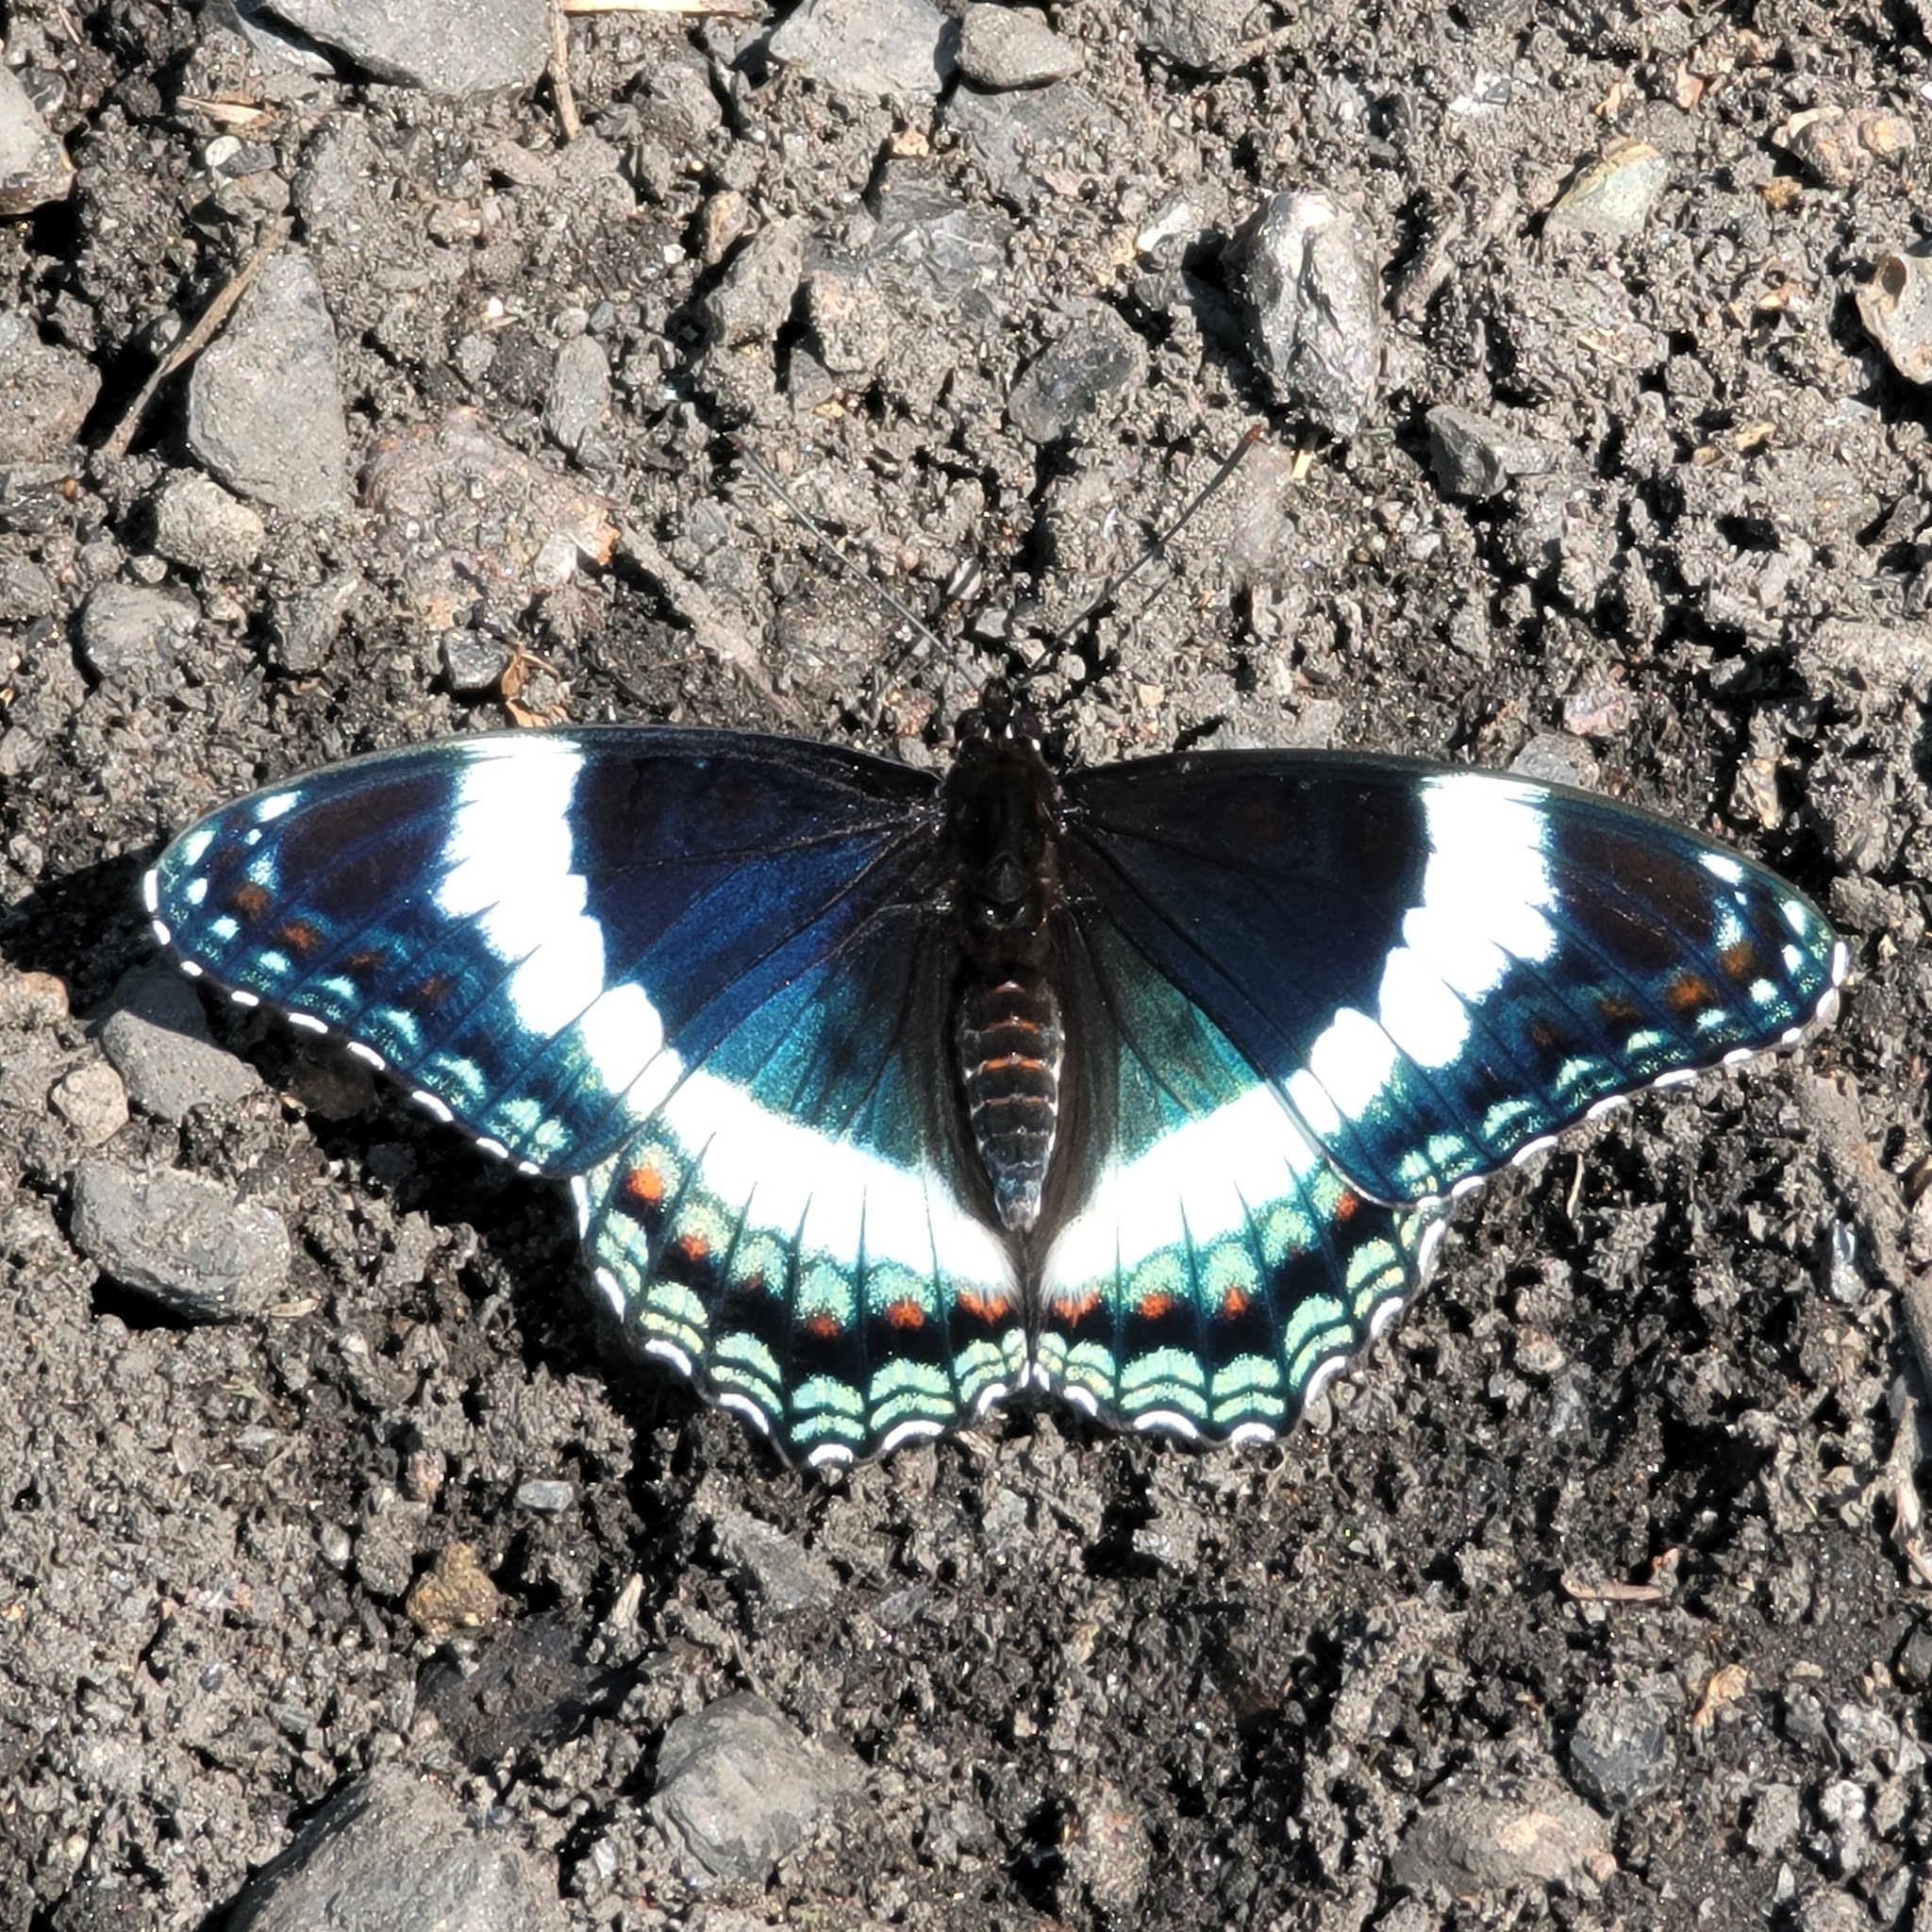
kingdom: Animalia
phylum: Arthropoda
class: Insecta
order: Lepidoptera
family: Nymphalidae
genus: Limenitis
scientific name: Limenitis arthemis
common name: Red-spotted admiral
